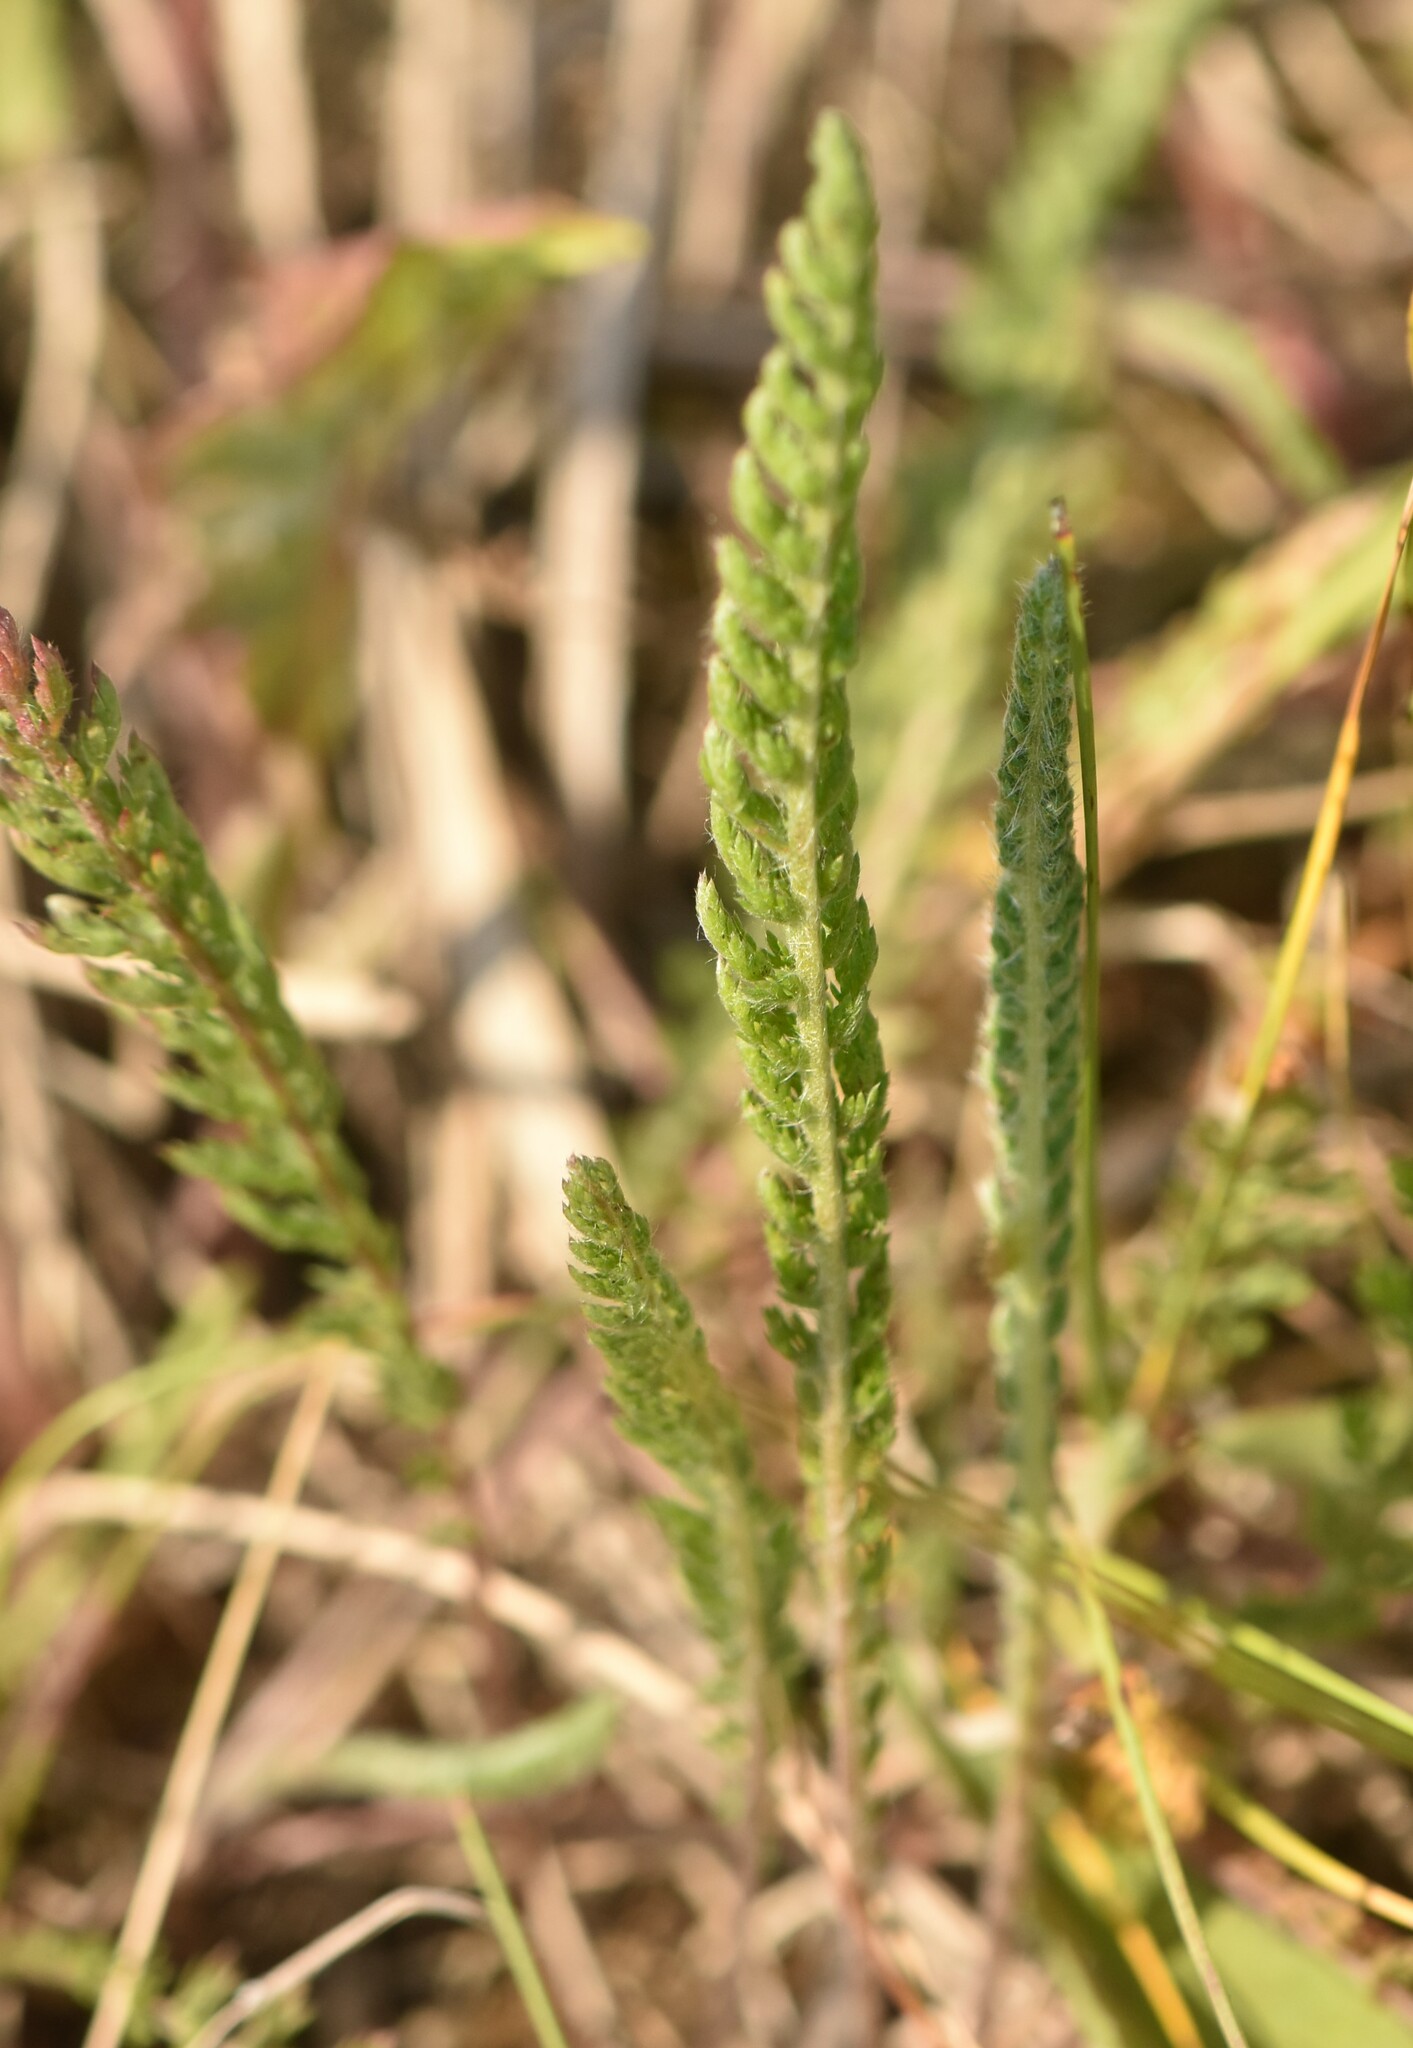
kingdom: Plantae
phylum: Tracheophyta
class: Magnoliopsida
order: Asterales
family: Asteraceae
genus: Achillea
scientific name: Achillea millefolium
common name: Yarrow
